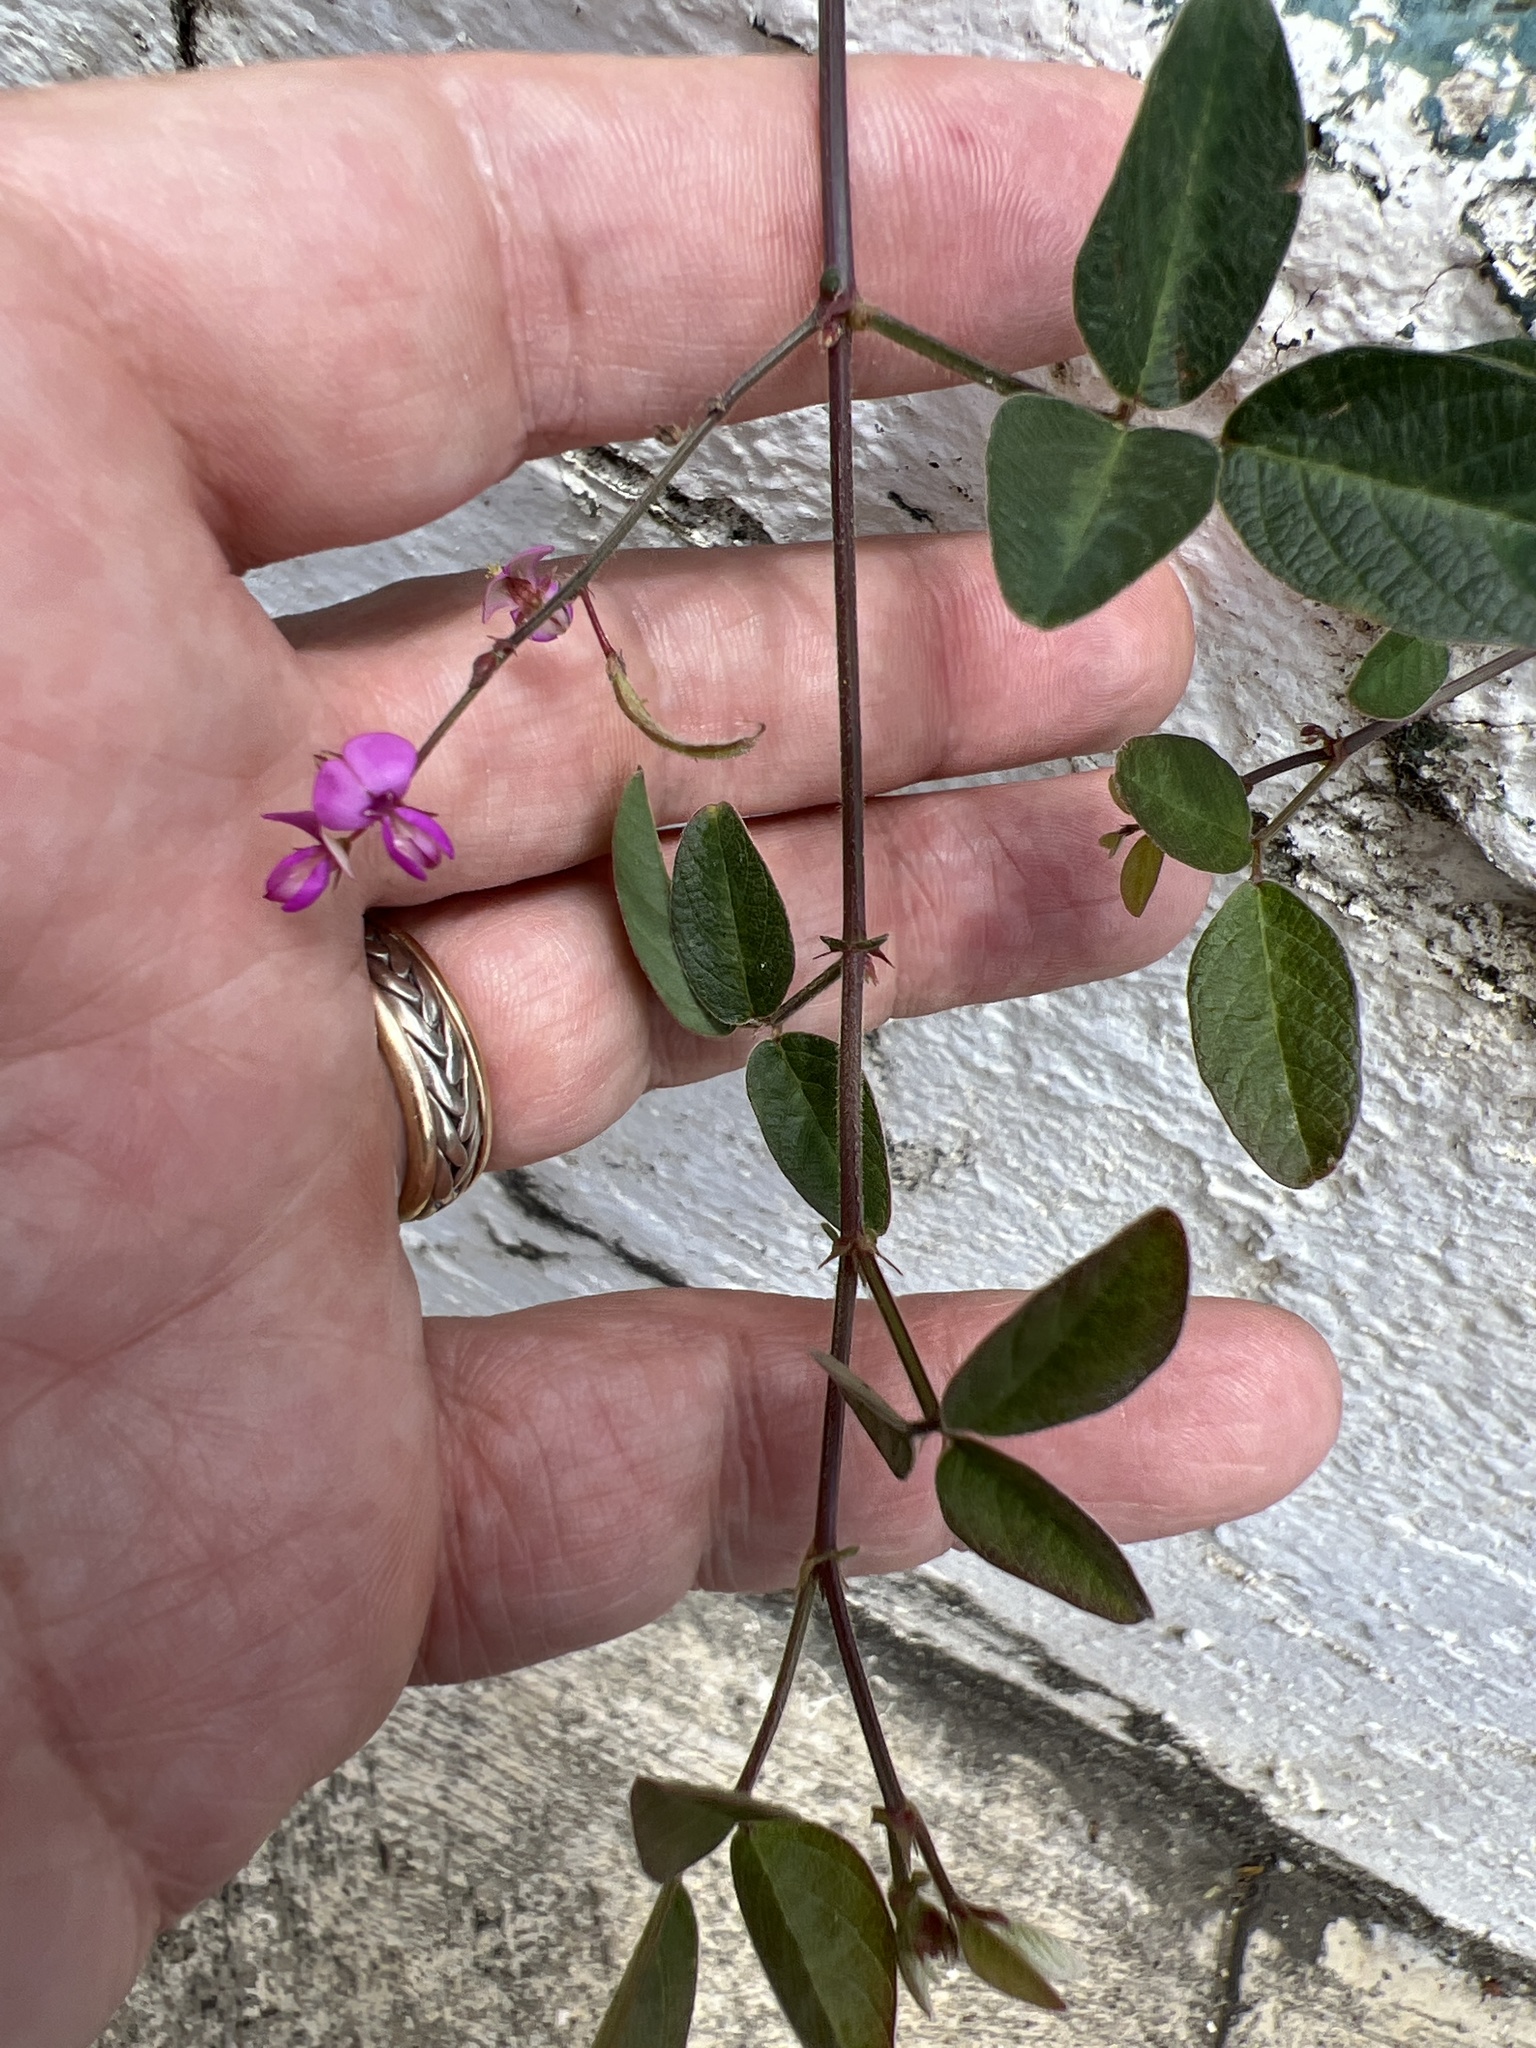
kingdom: Plantae
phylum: Tracheophyta
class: Magnoliopsida
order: Fabales
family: Fabaceae
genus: Desmodium
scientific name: Desmodium incanum
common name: Tickclover
